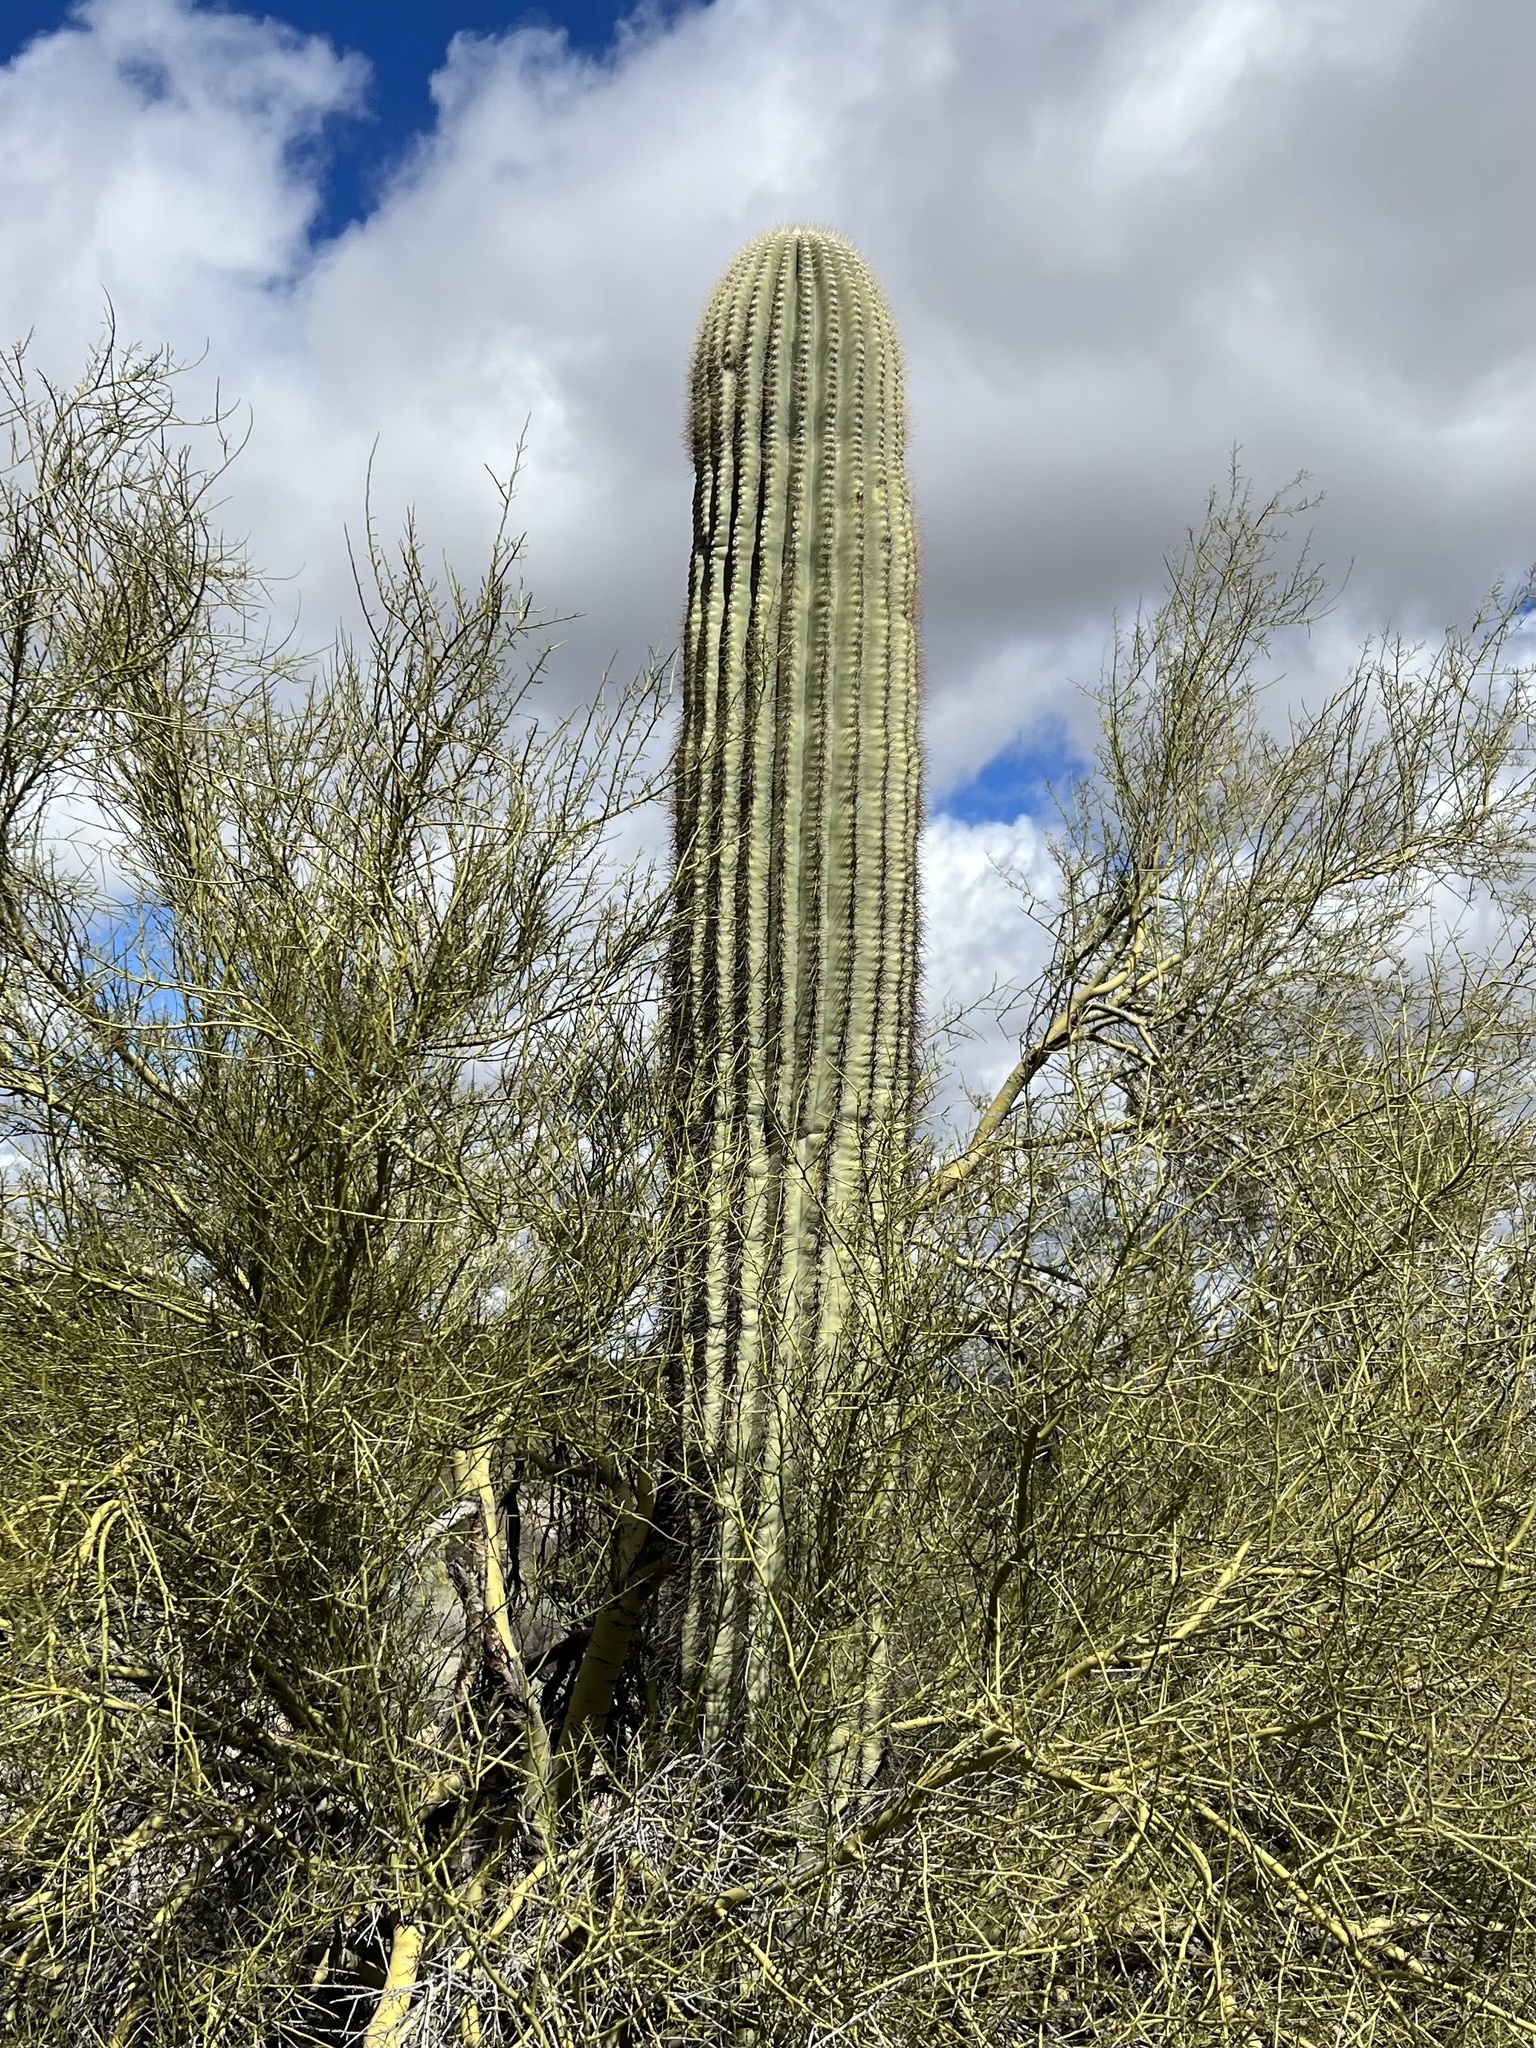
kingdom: Plantae
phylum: Tracheophyta
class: Magnoliopsida
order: Caryophyllales
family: Cactaceae
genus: Carnegiea
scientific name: Carnegiea gigantea
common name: Saguaro
